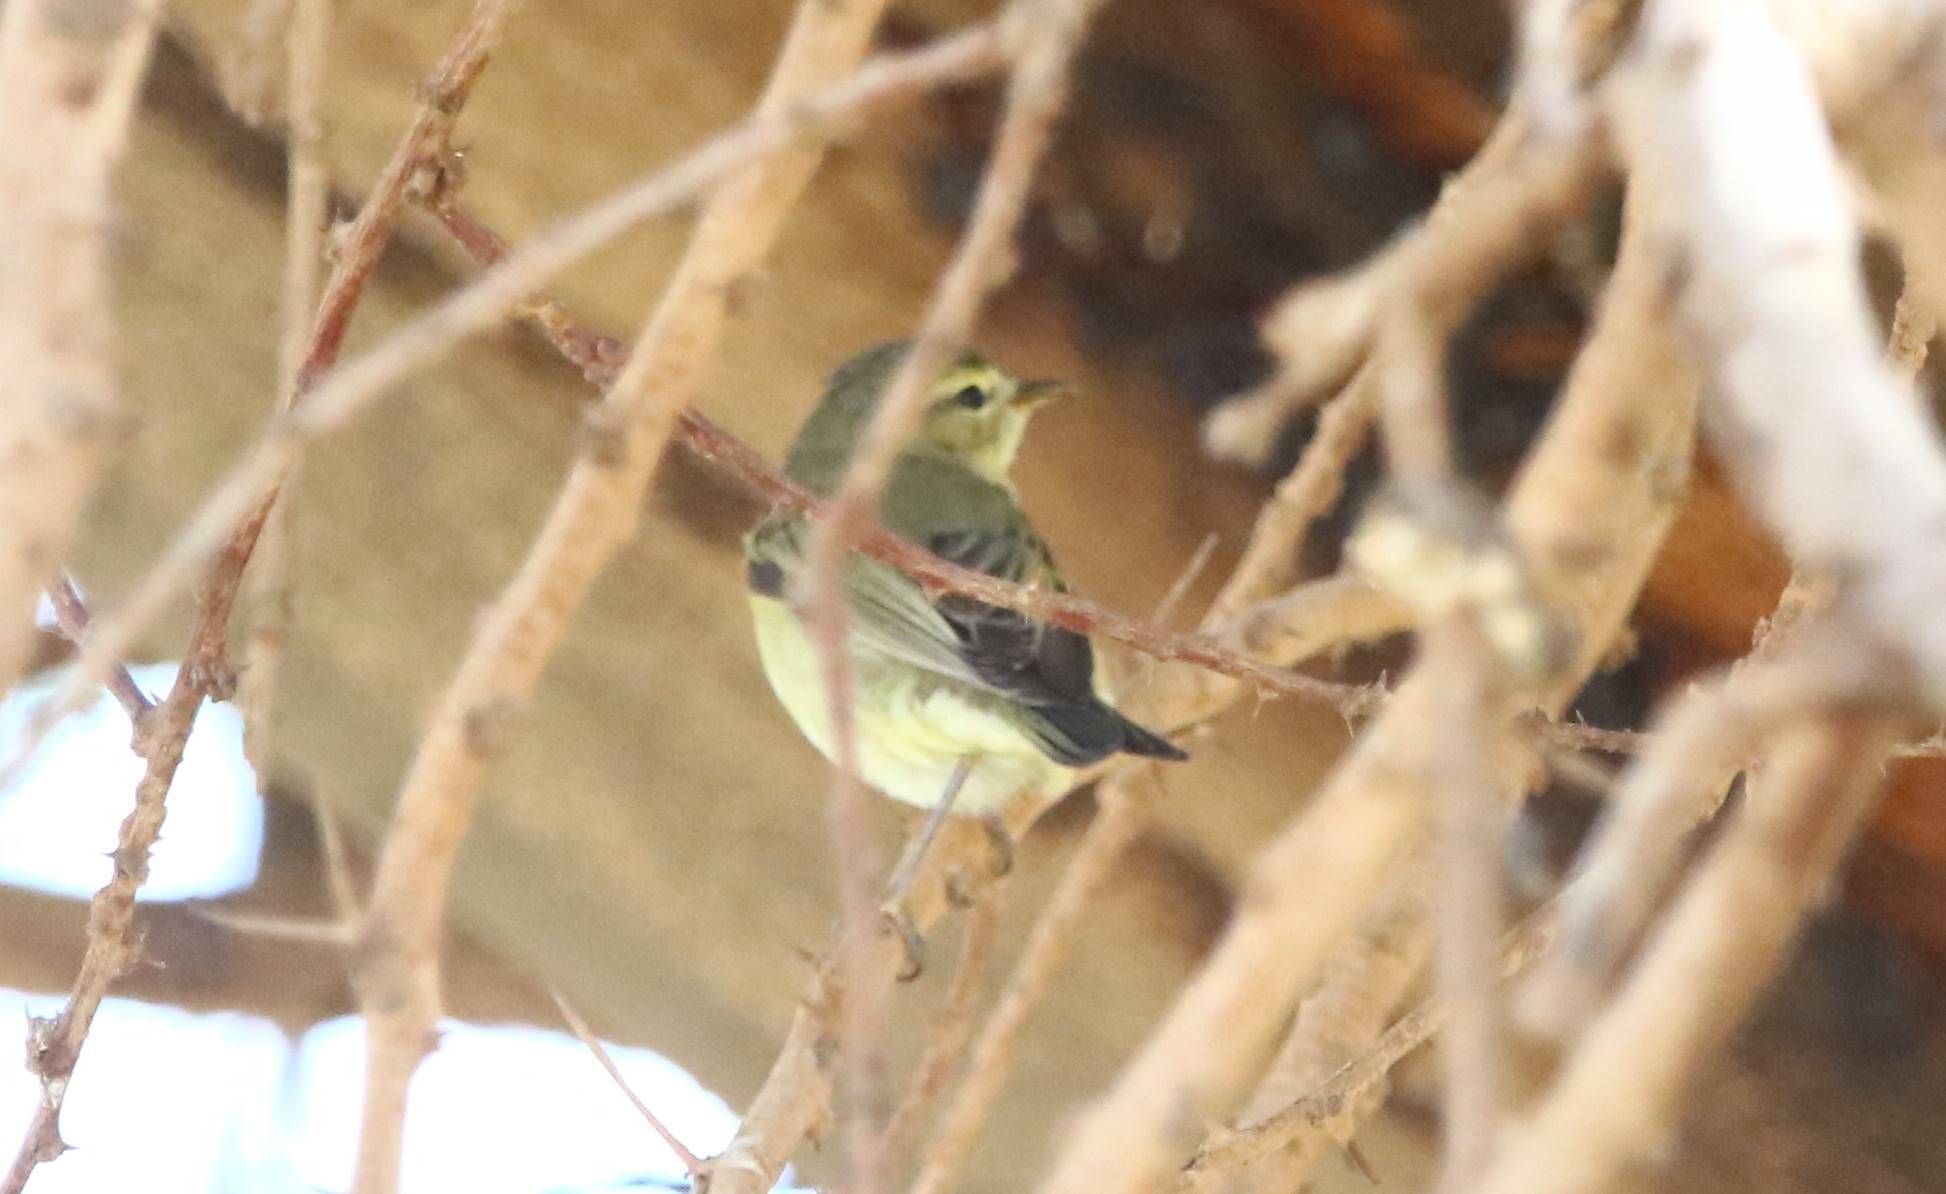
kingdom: Animalia
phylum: Chordata
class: Aves
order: Passeriformes
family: Phylloscopidae
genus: Phylloscopus
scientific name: Phylloscopus trochilus
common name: Willow warbler
